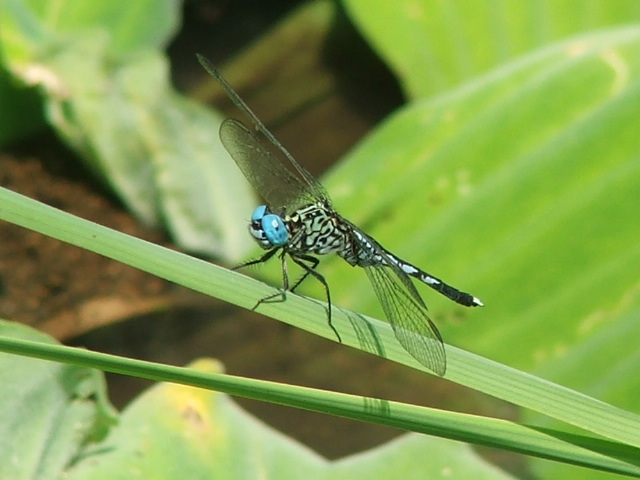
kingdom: Animalia
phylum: Arthropoda
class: Insecta
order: Odonata
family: Libellulidae
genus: Acisoma
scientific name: Acisoma inflatum
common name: Stout pintail
